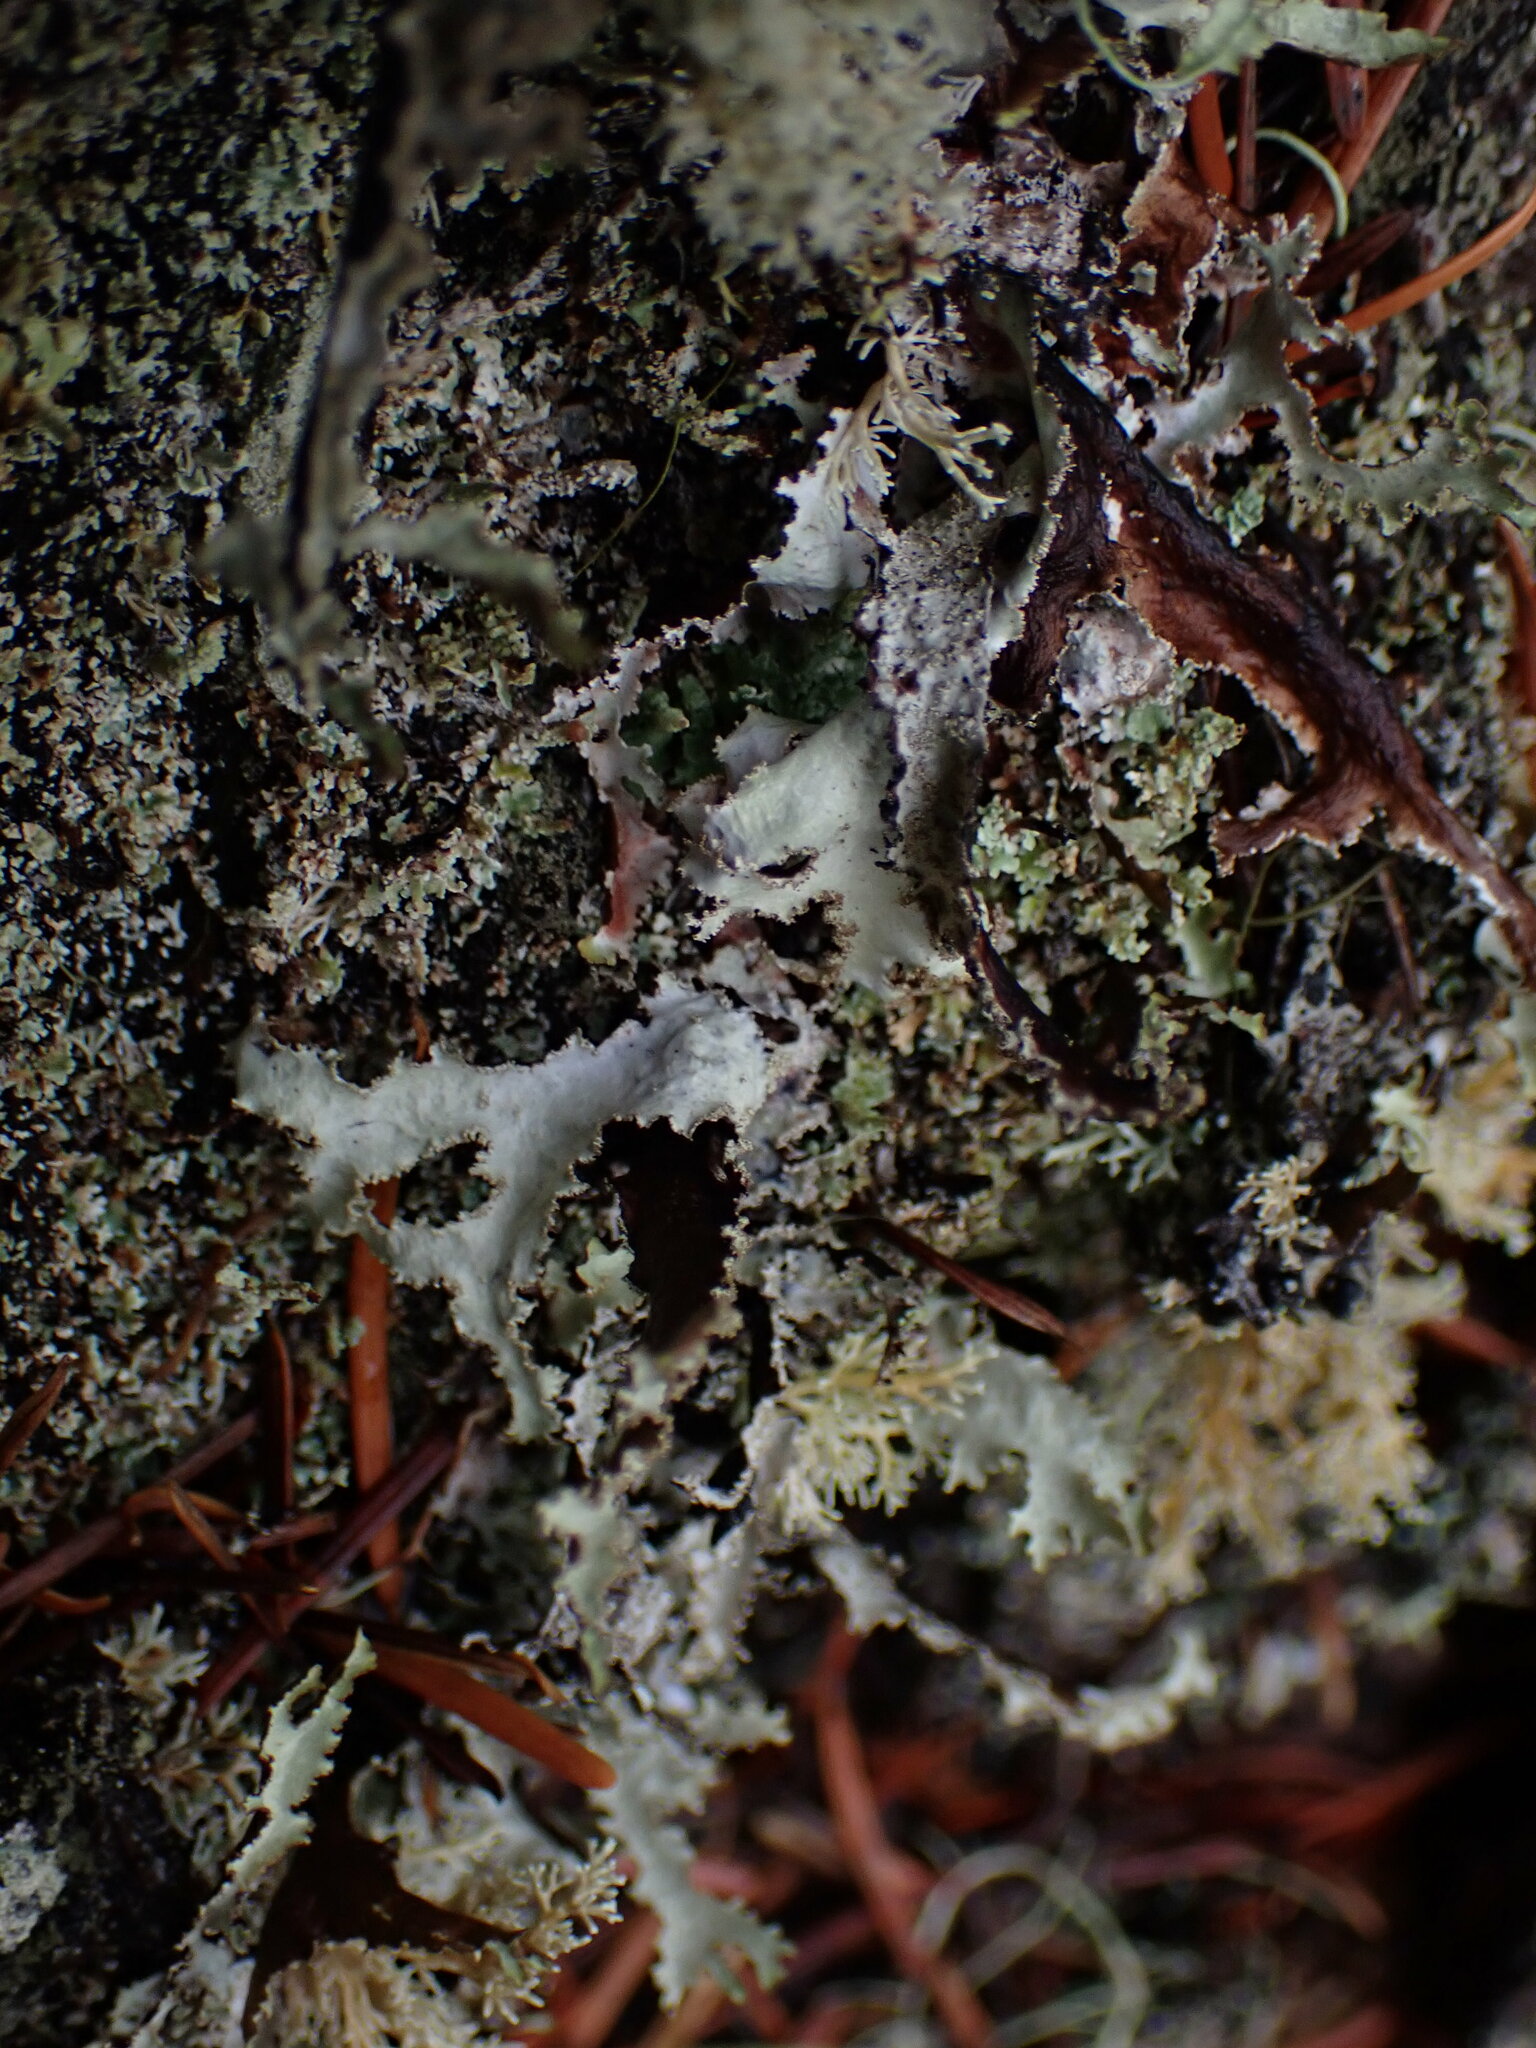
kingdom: Fungi
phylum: Ascomycota
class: Lecanoromycetes
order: Lecanorales
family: Parmeliaceae
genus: Platismatia
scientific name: Platismatia herrei
